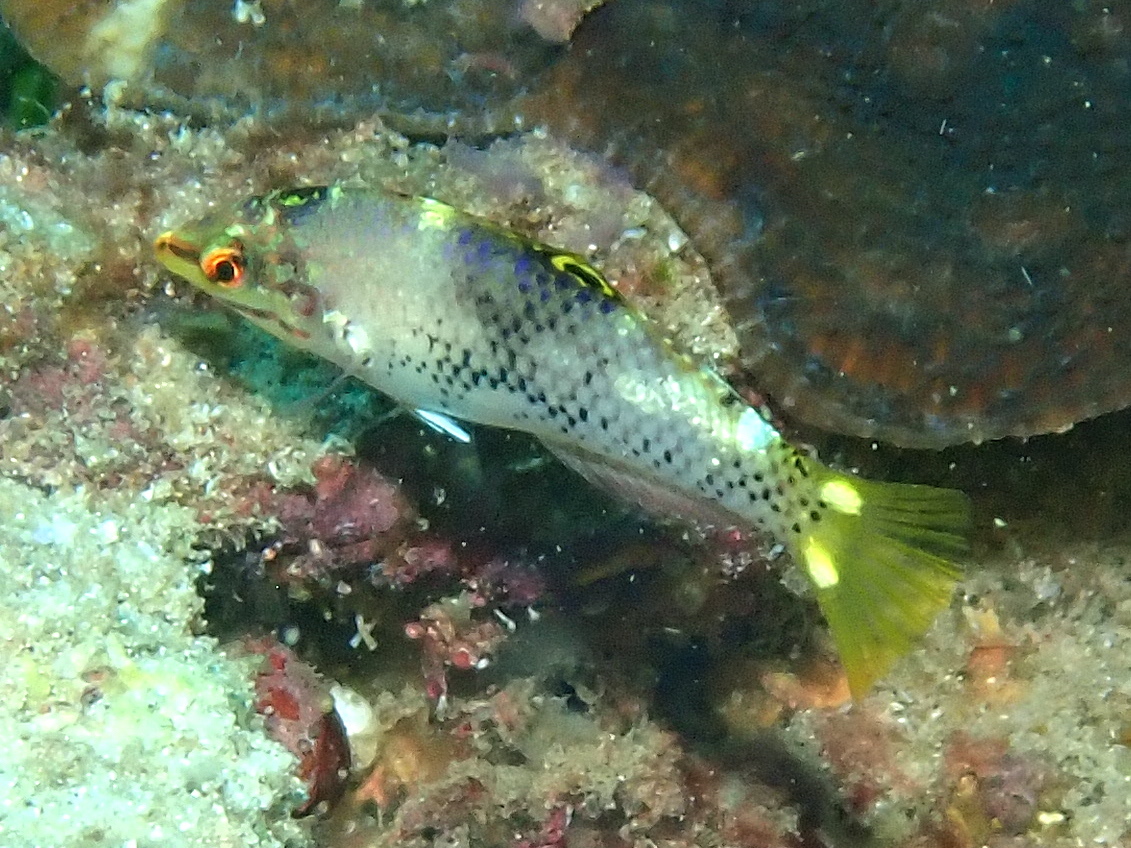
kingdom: Animalia
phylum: Chordata
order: Perciformes
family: Labridae
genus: Halichoeres
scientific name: Halichoeres hortulanus
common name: Checkerboard wrasse
